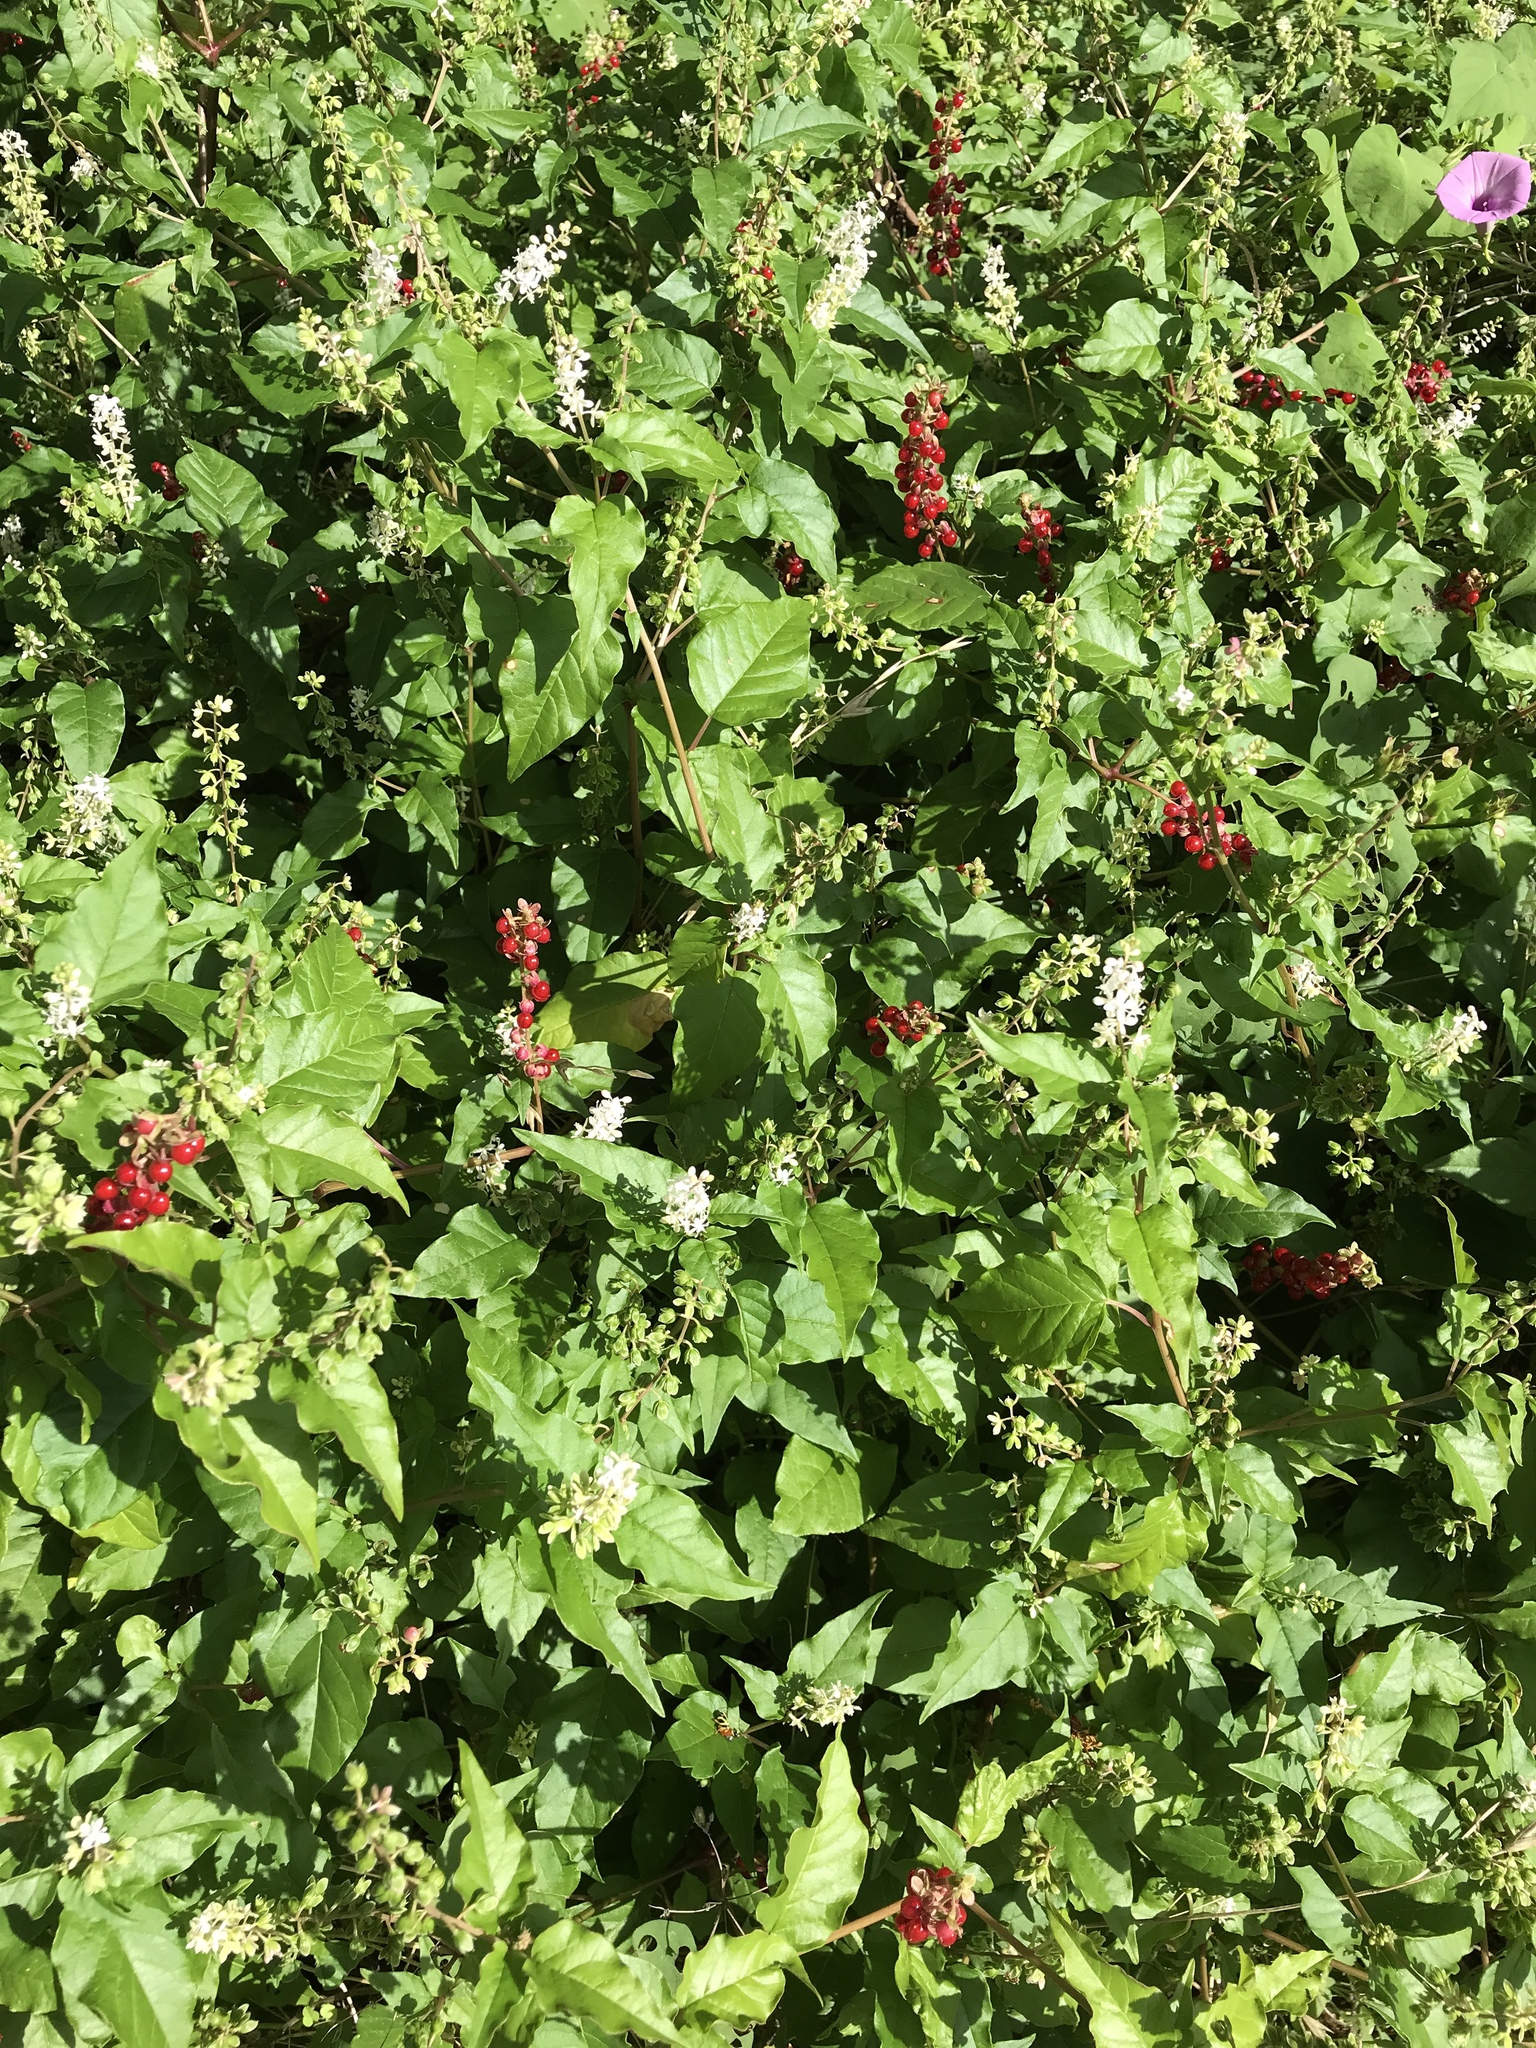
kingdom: Plantae
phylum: Tracheophyta
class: Magnoliopsida
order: Caryophyllales
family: Phytolaccaceae
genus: Rivina
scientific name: Rivina humilis
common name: Rougeplant
